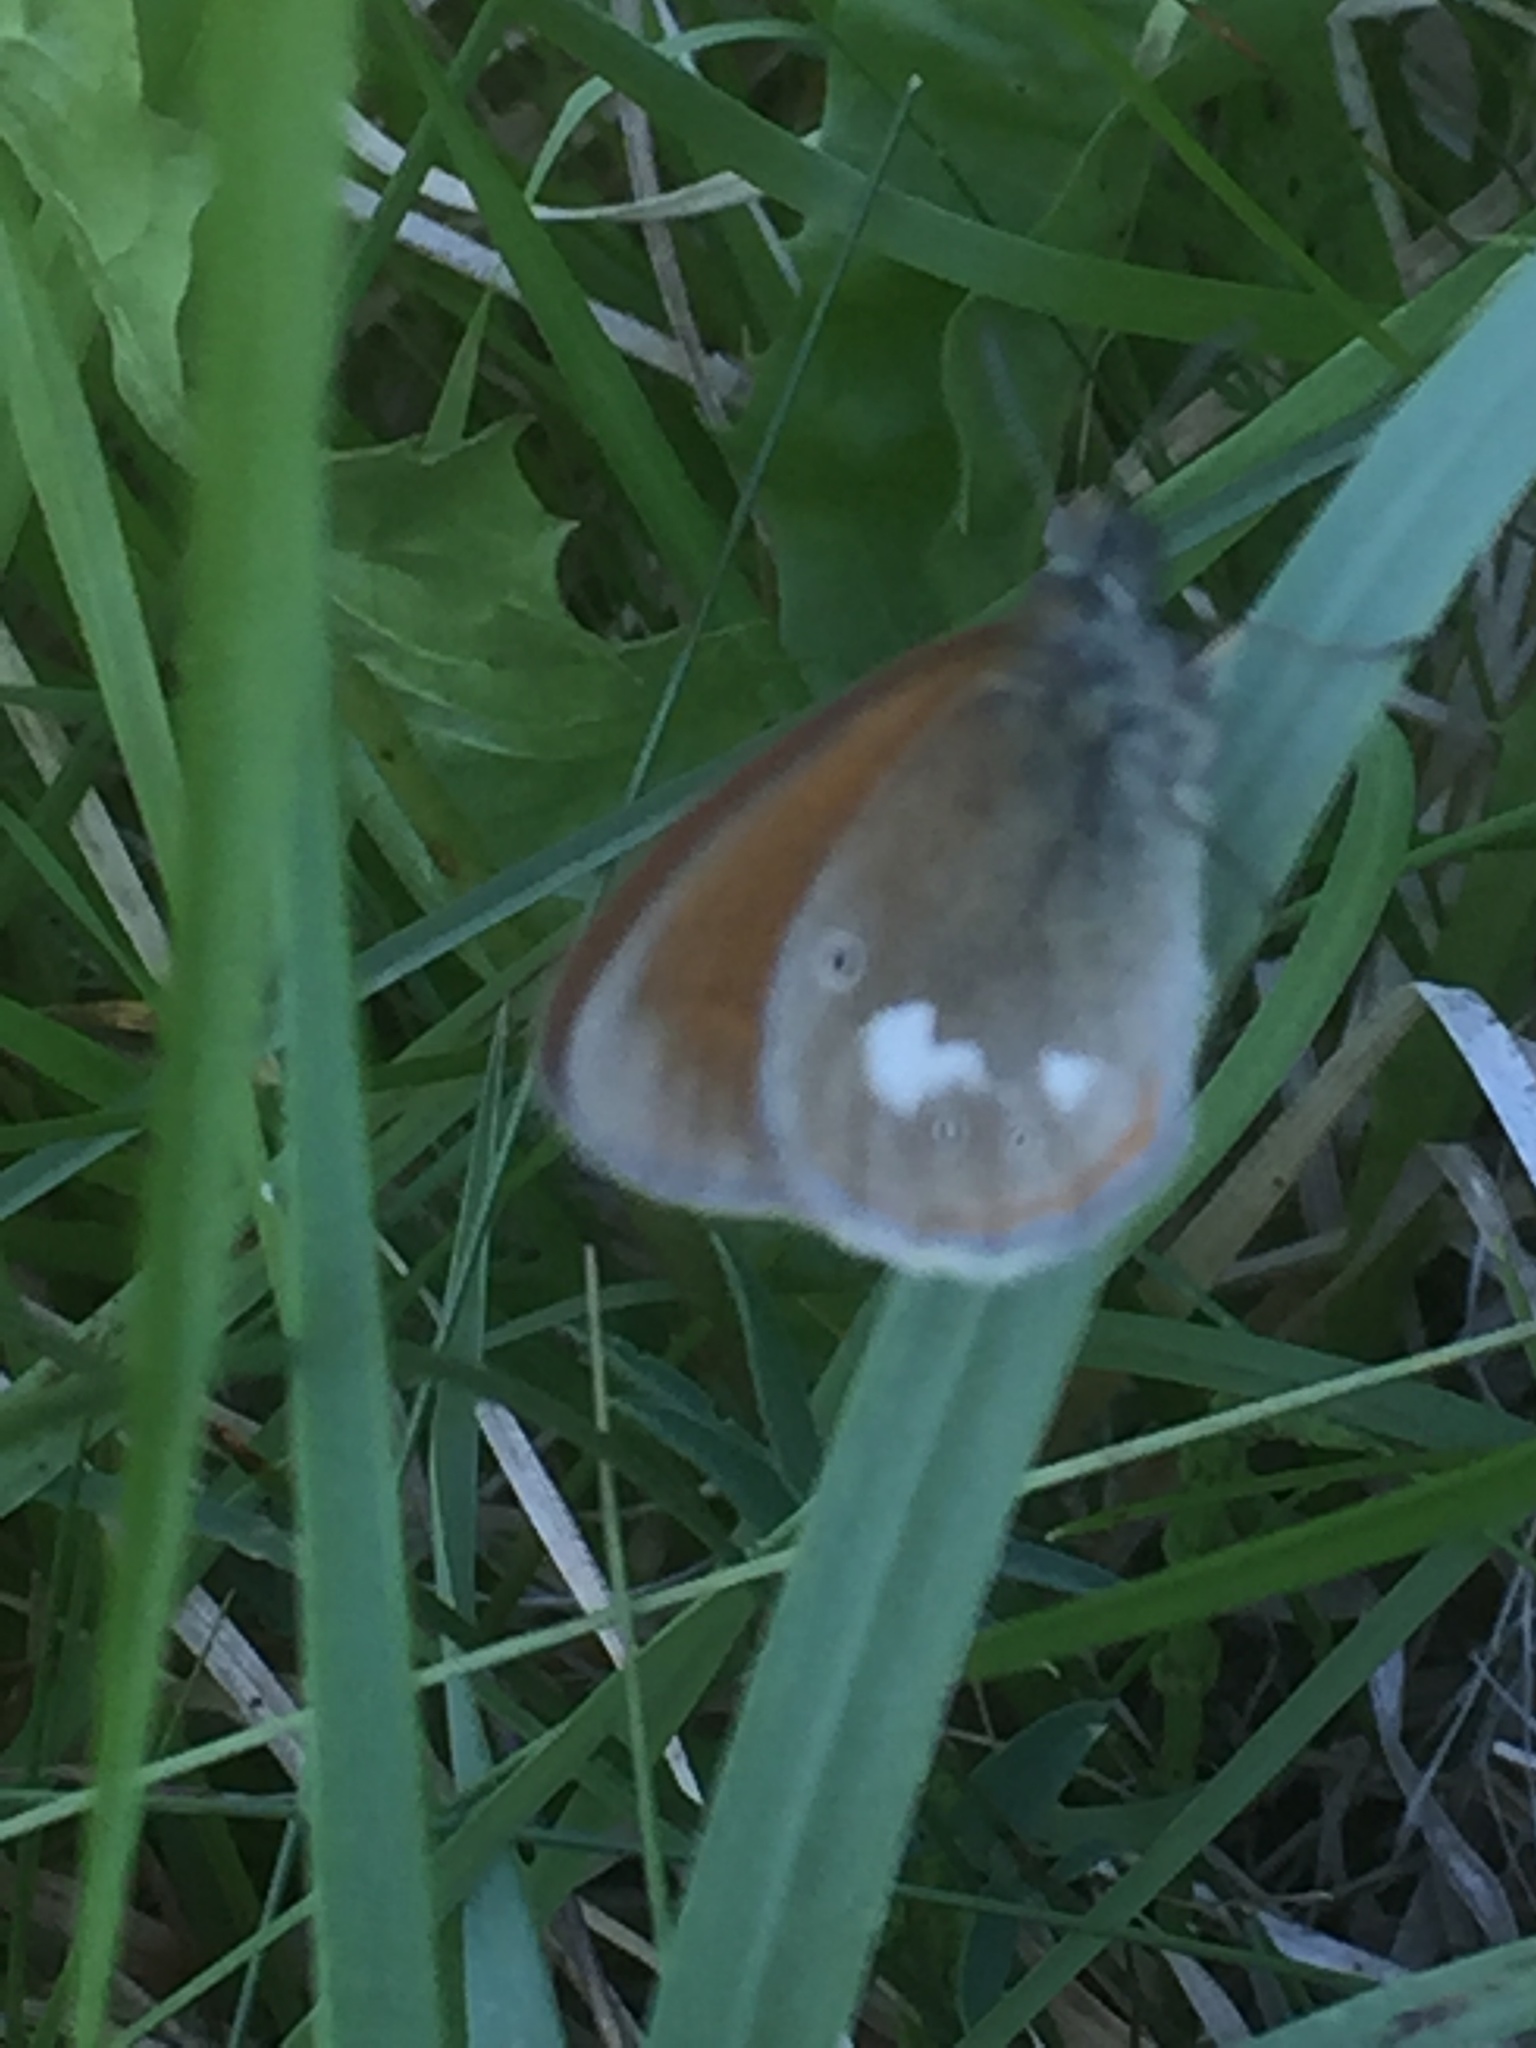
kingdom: Animalia
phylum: Arthropoda
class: Insecta
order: Lepidoptera
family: Nymphalidae
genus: Coenonympha
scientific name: Coenonympha iphis
